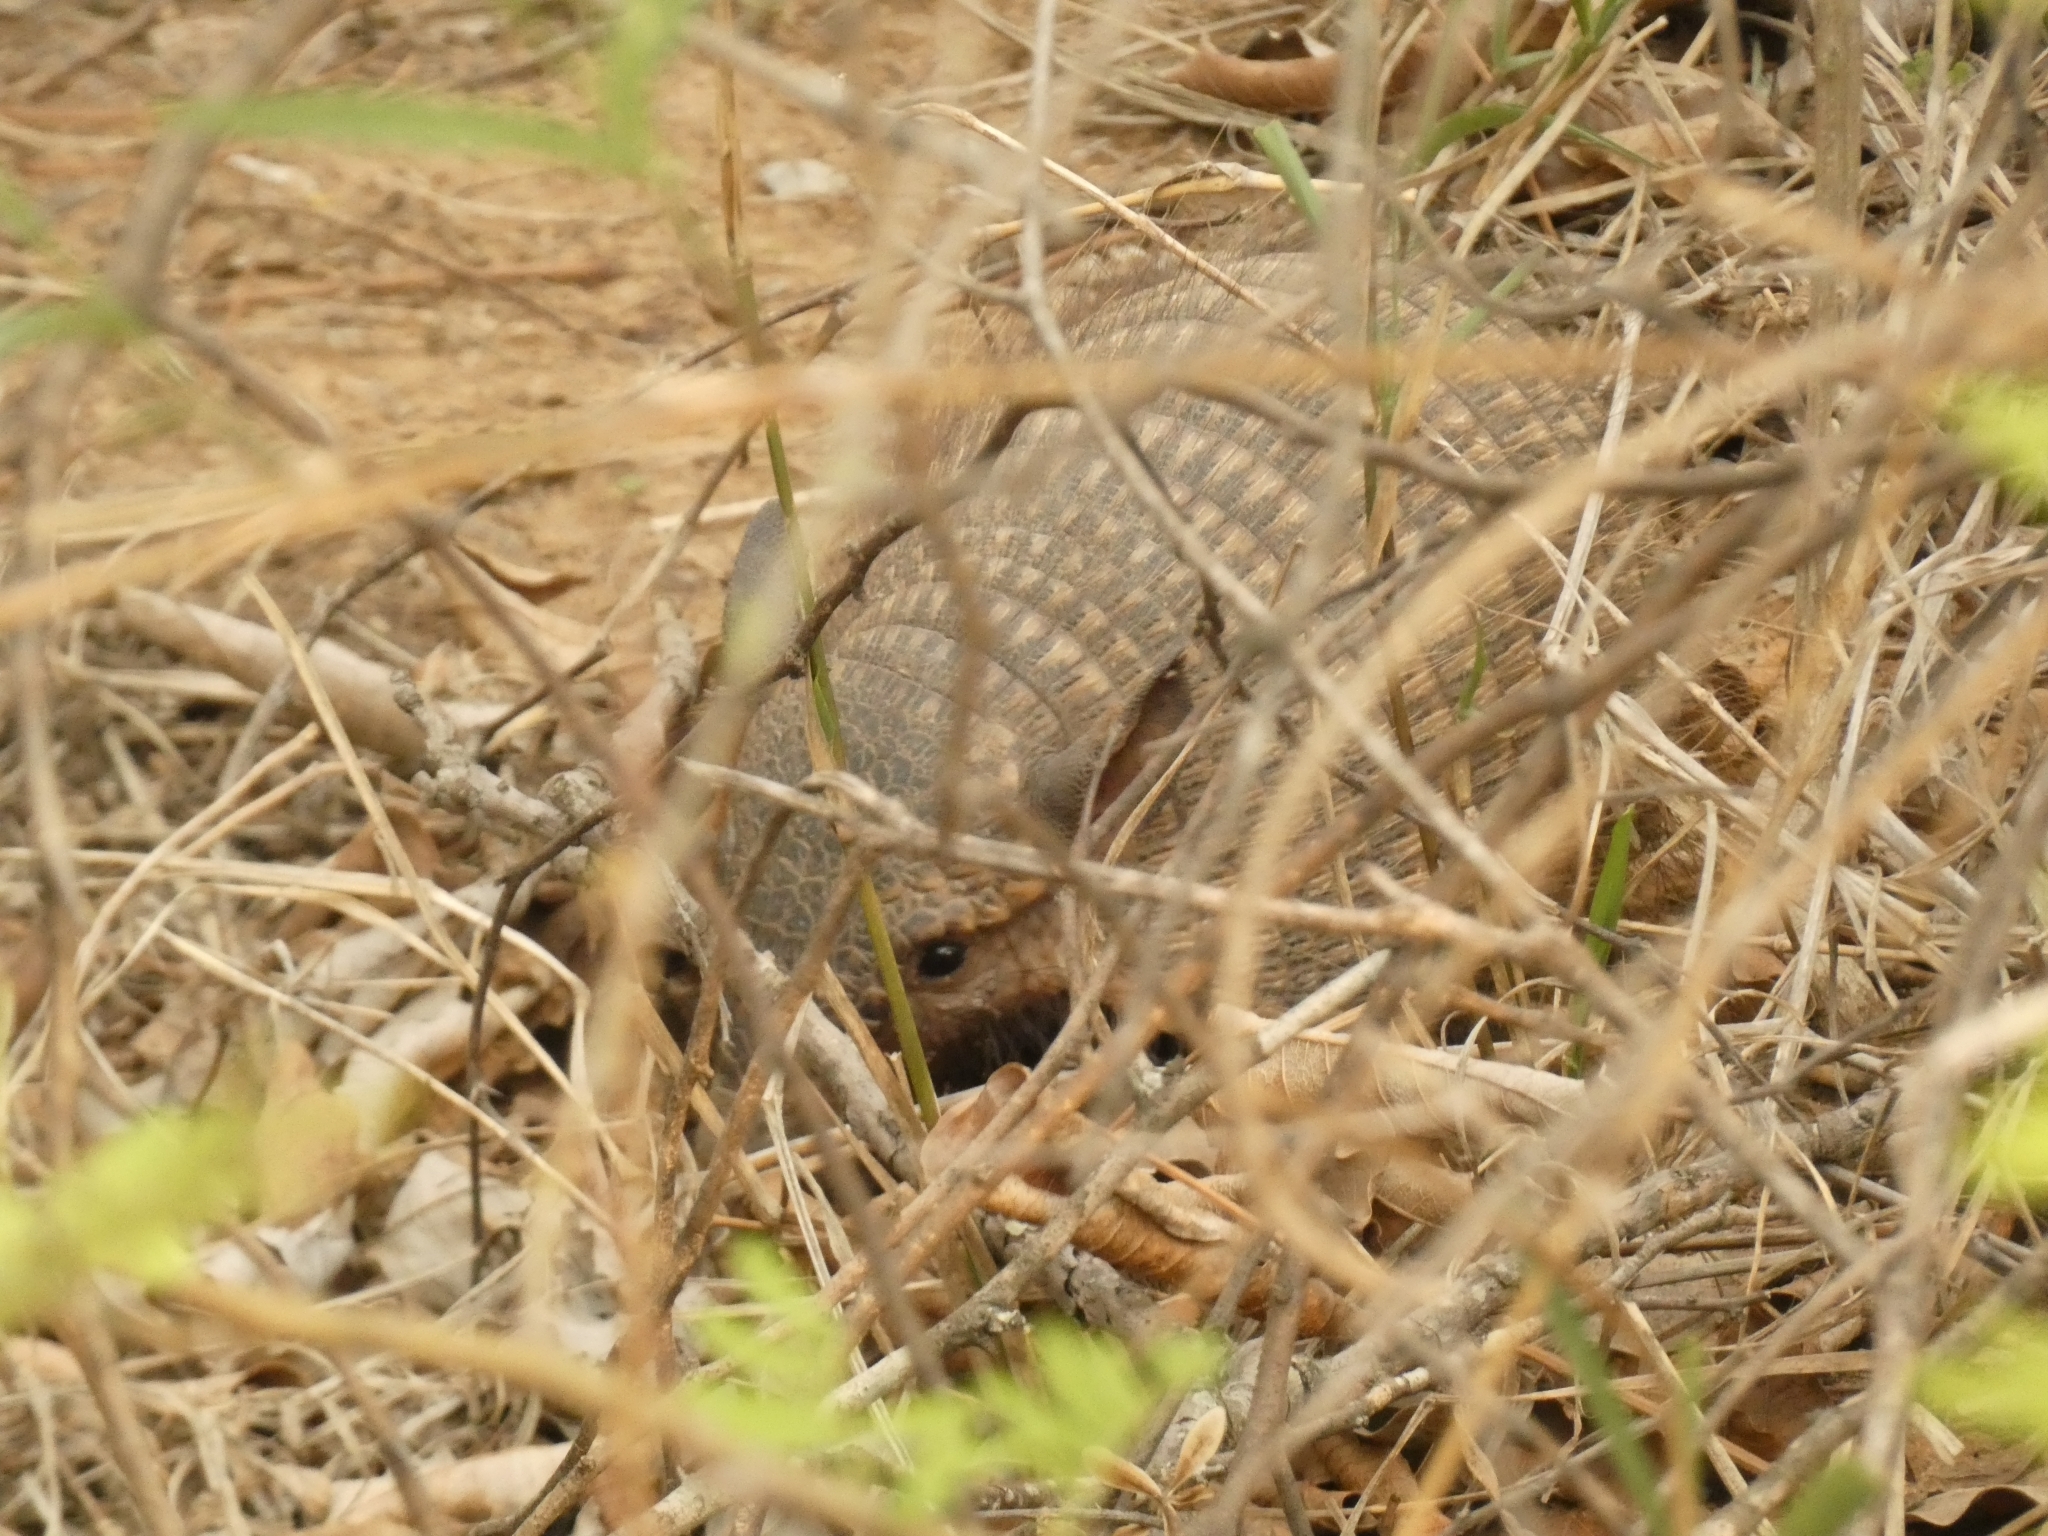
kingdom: Animalia
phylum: Chordata
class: Mammalia
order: Cingulata
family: Dasypodidae
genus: Chaetophractus
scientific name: Chaetophractus vellerosus
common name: Screaming hairy armadillo
